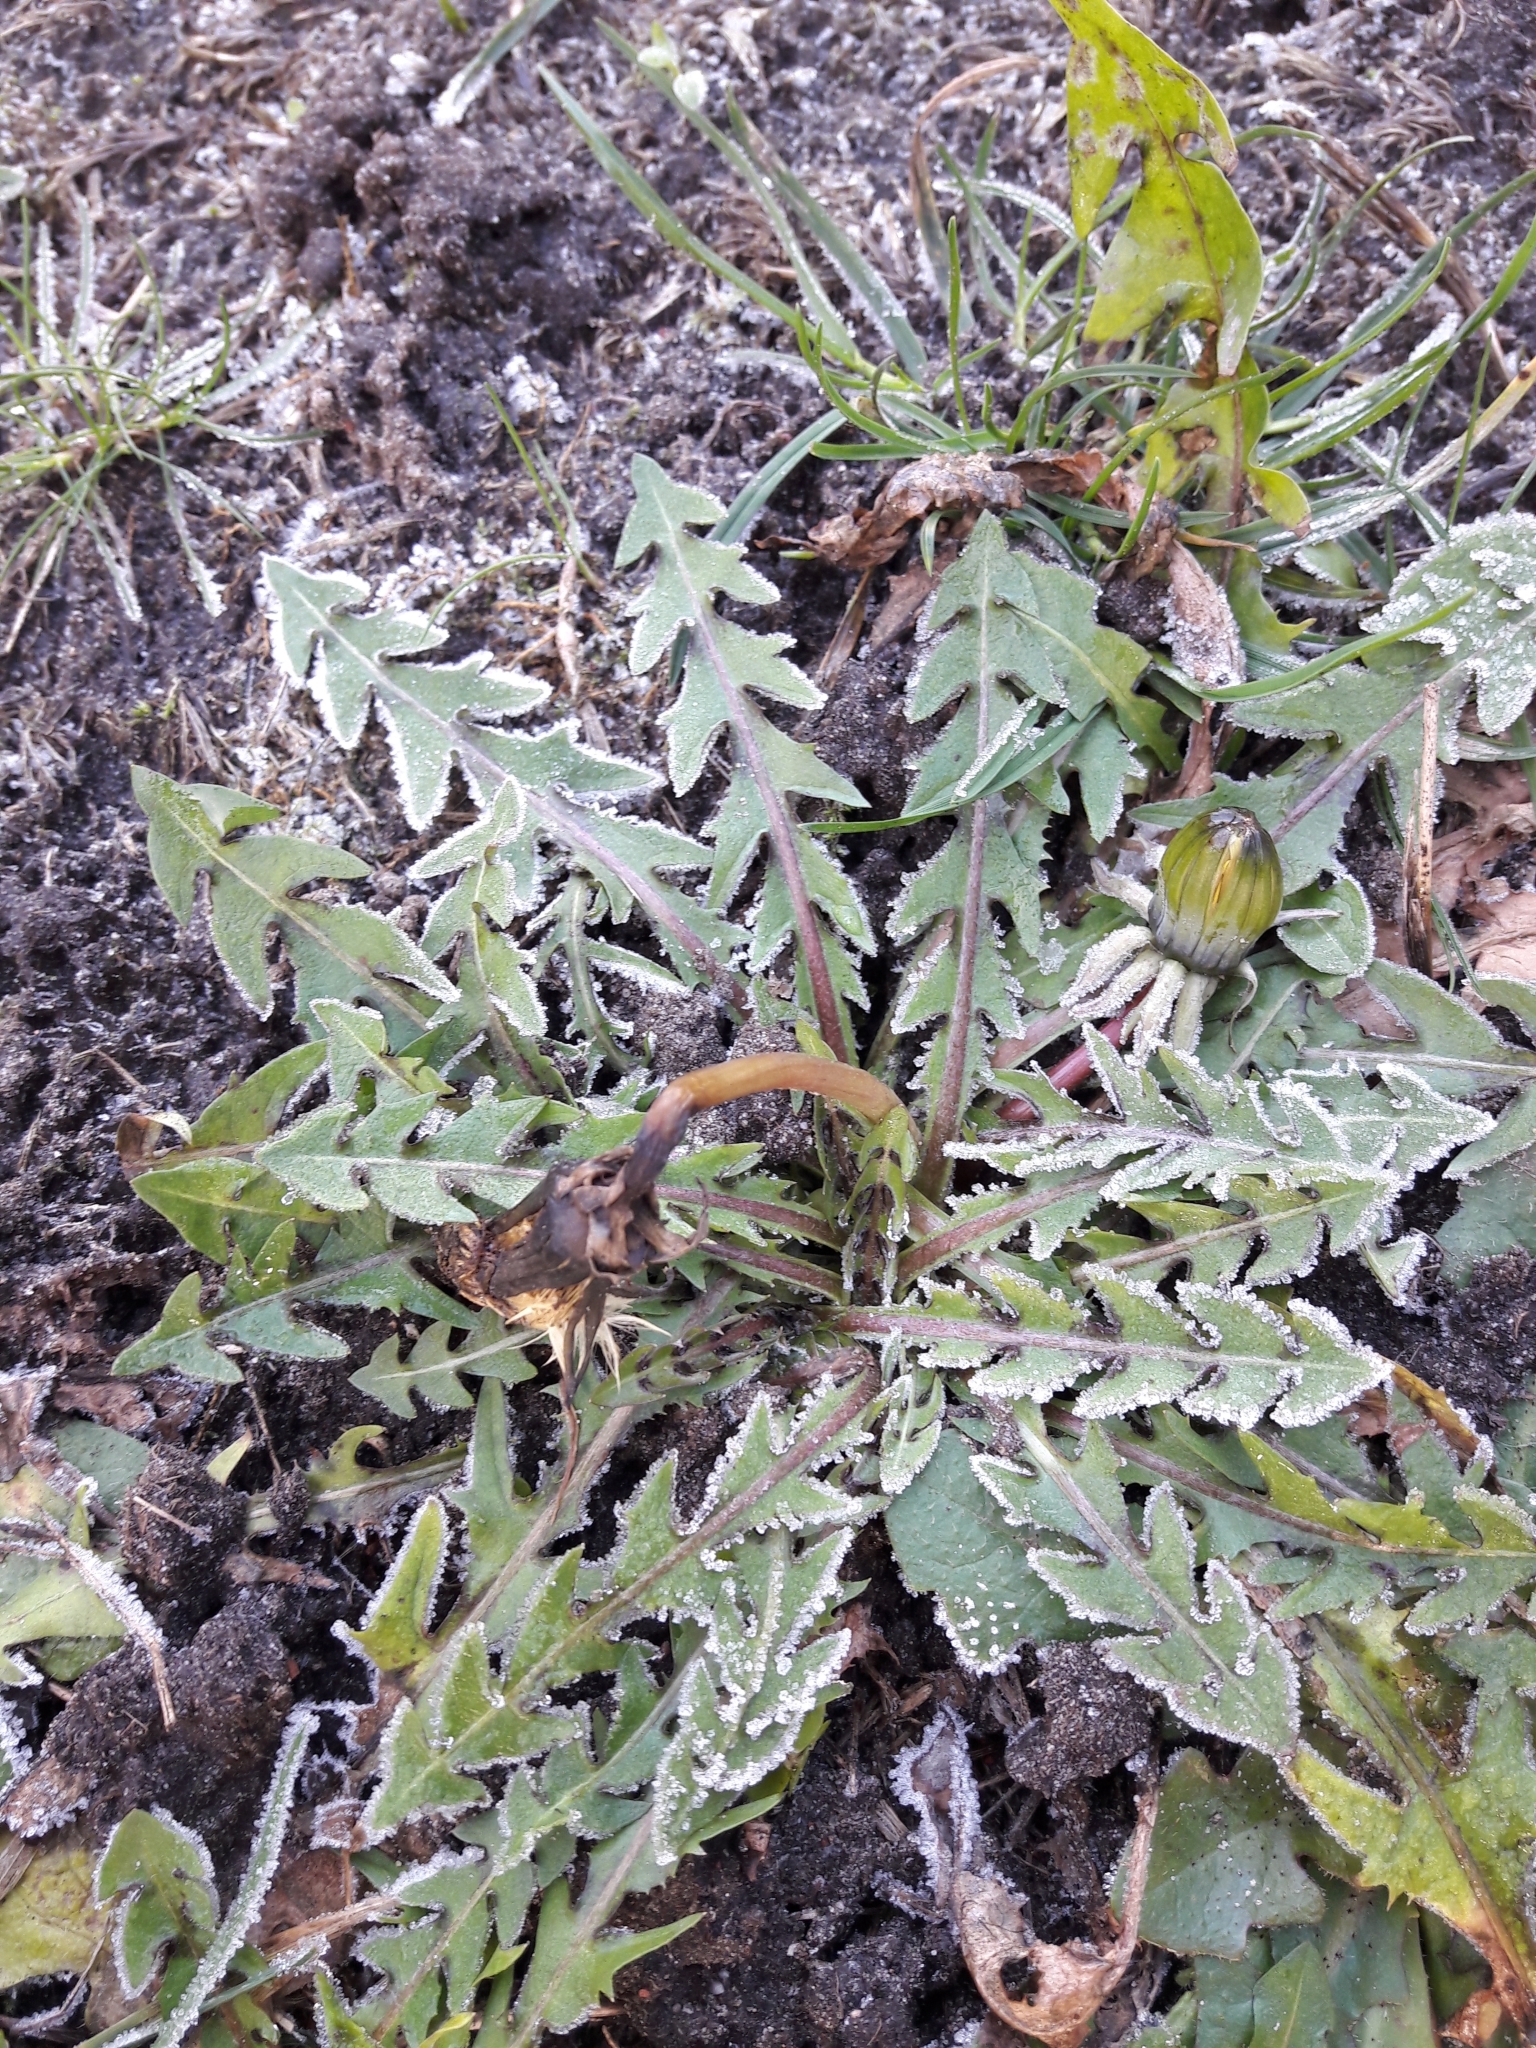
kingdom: Plantae
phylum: Tracheophyta
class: Magnoliopsida
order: Asterales
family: Asteraceae
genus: Taraxacum
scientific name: Taraxacum officinale
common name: Common dandelion
